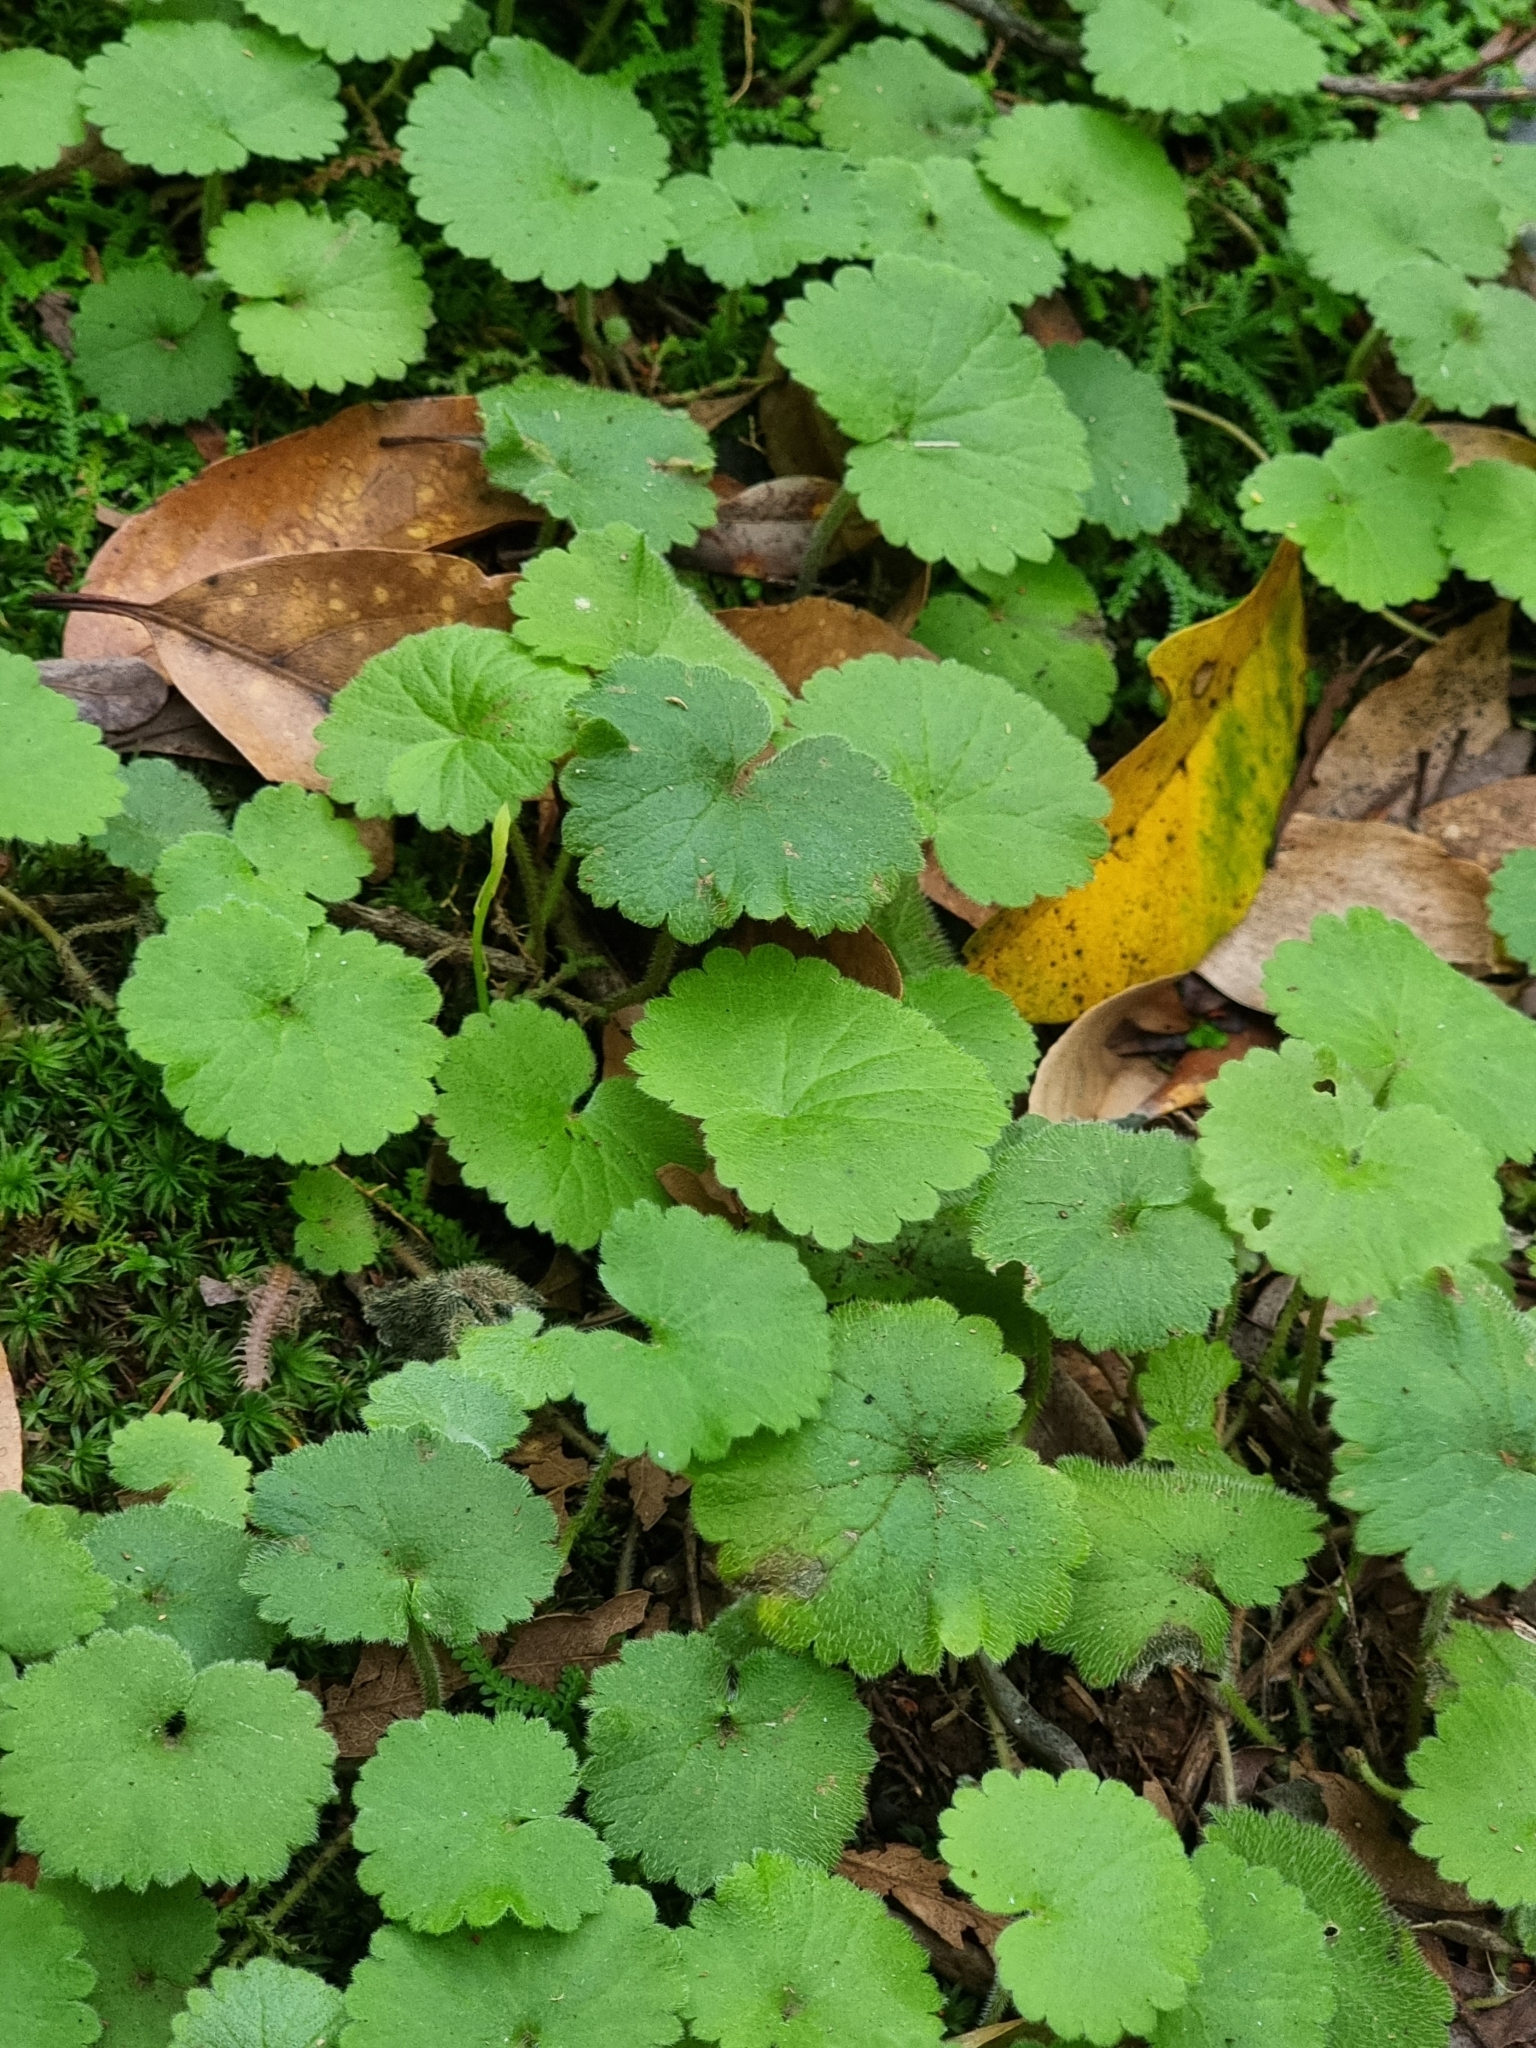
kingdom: Plantae
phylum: Tracheophyta
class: Magnoliopsida
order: Lamiales
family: Plantaginaceae
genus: Sibthorpia
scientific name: Sibthorpia peregrina
